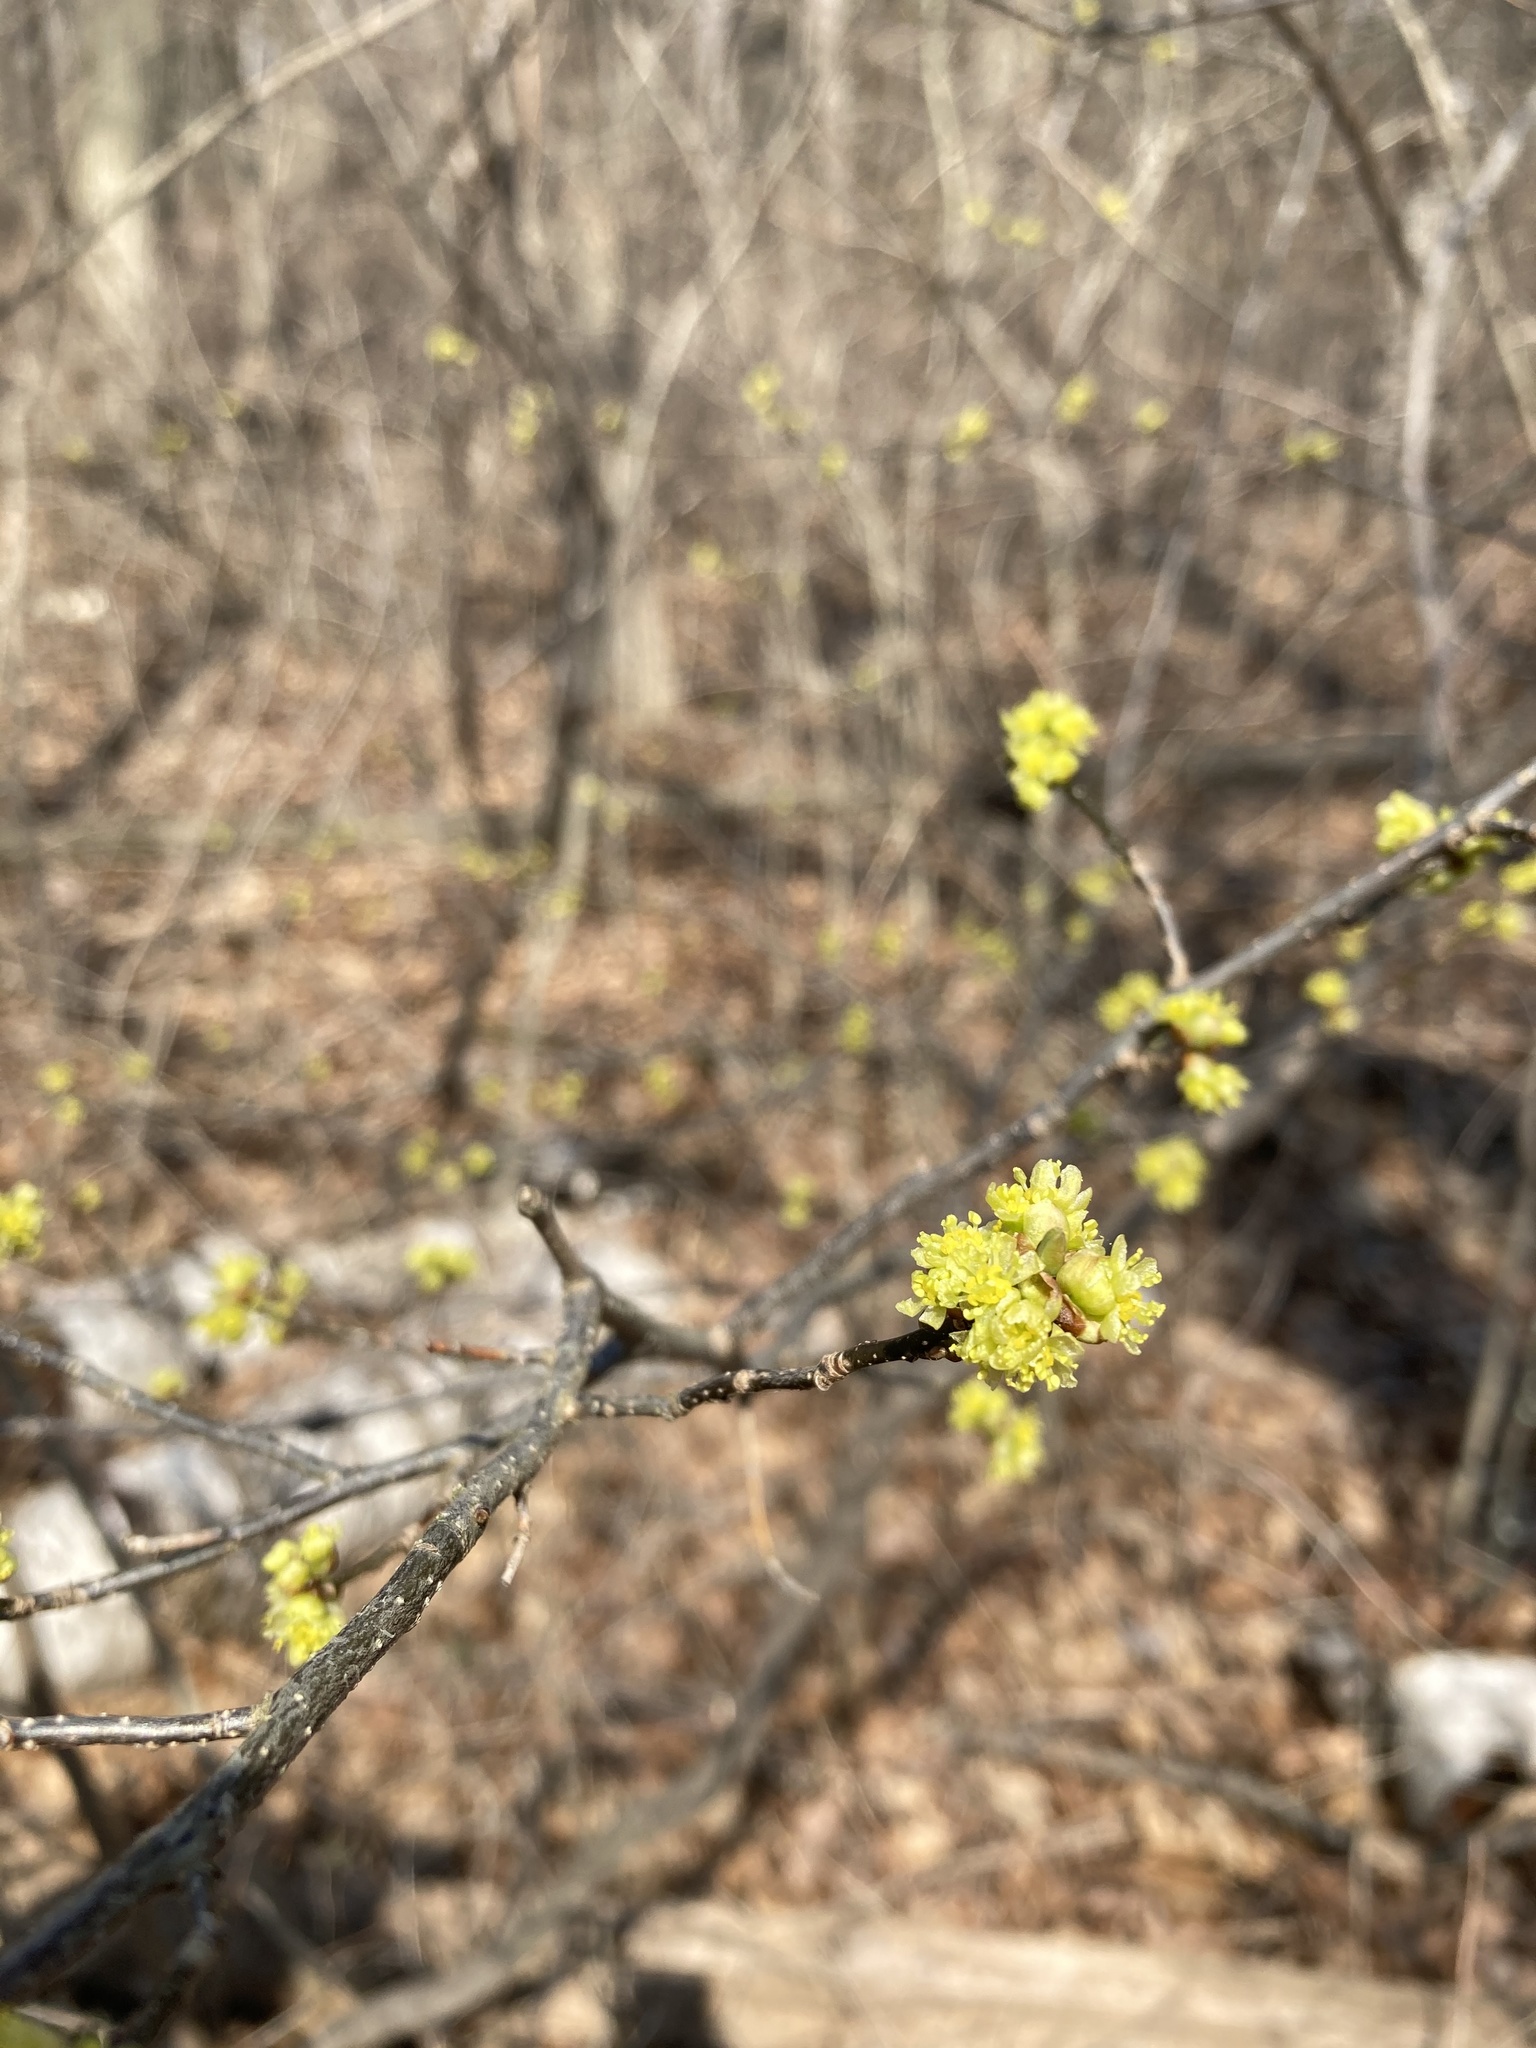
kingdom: Plantae
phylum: Tracheophyta
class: Magnoliopsida
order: Laurales
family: Lauraceae
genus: Lindera
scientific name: Lindera benzoin
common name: Spicebush
